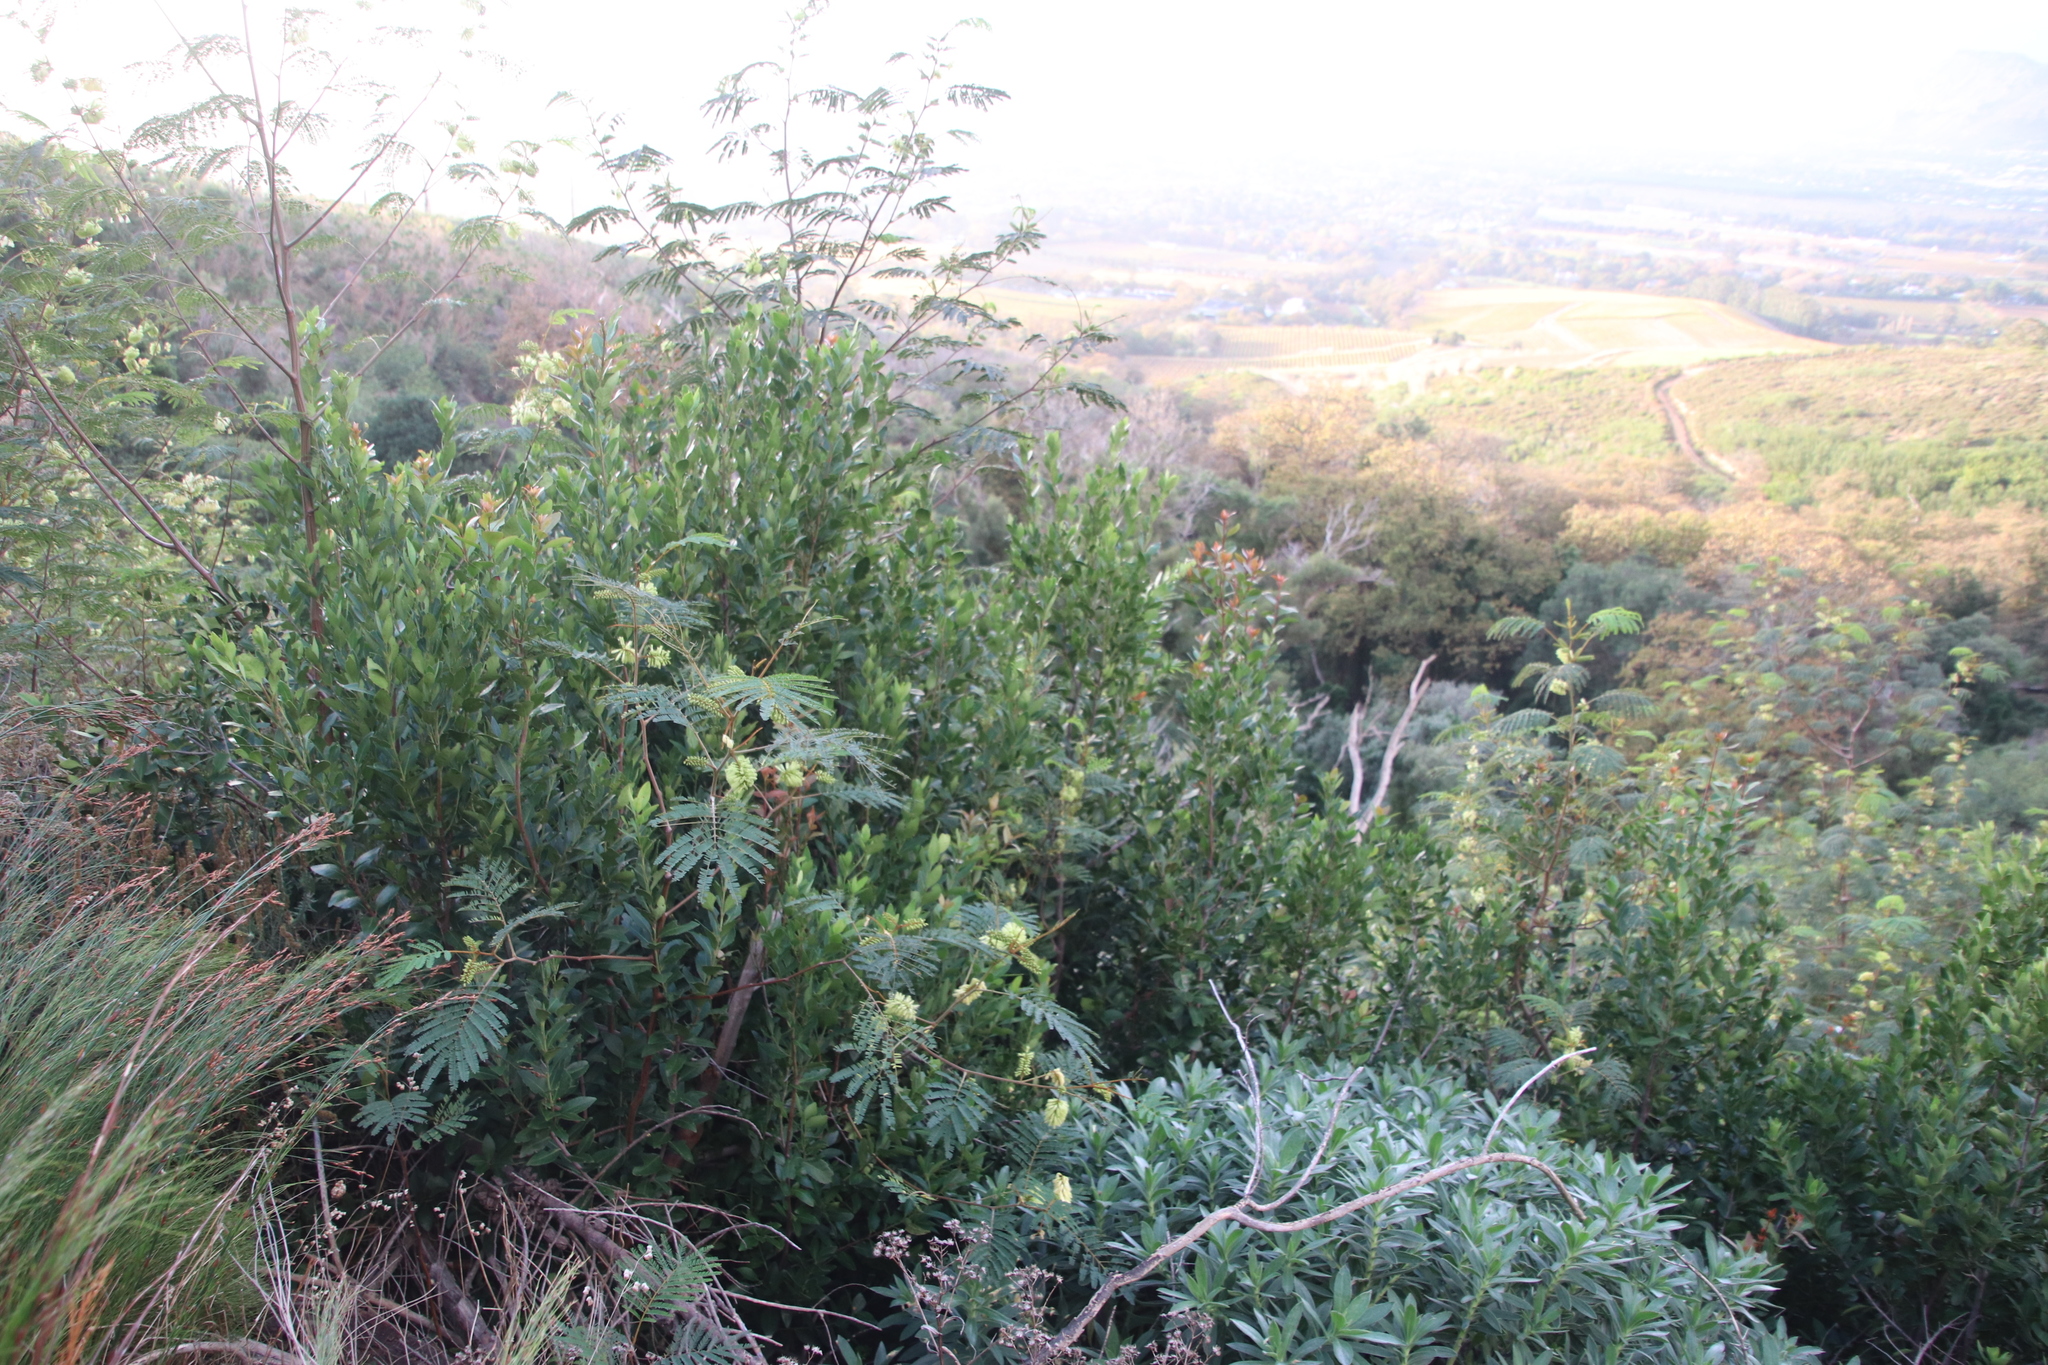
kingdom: Plantae
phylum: Tracheophyta
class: Magnoliopsida
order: Celastrales
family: Celastraceae
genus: Elaeodendron
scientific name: Elaeodendron schinoides
